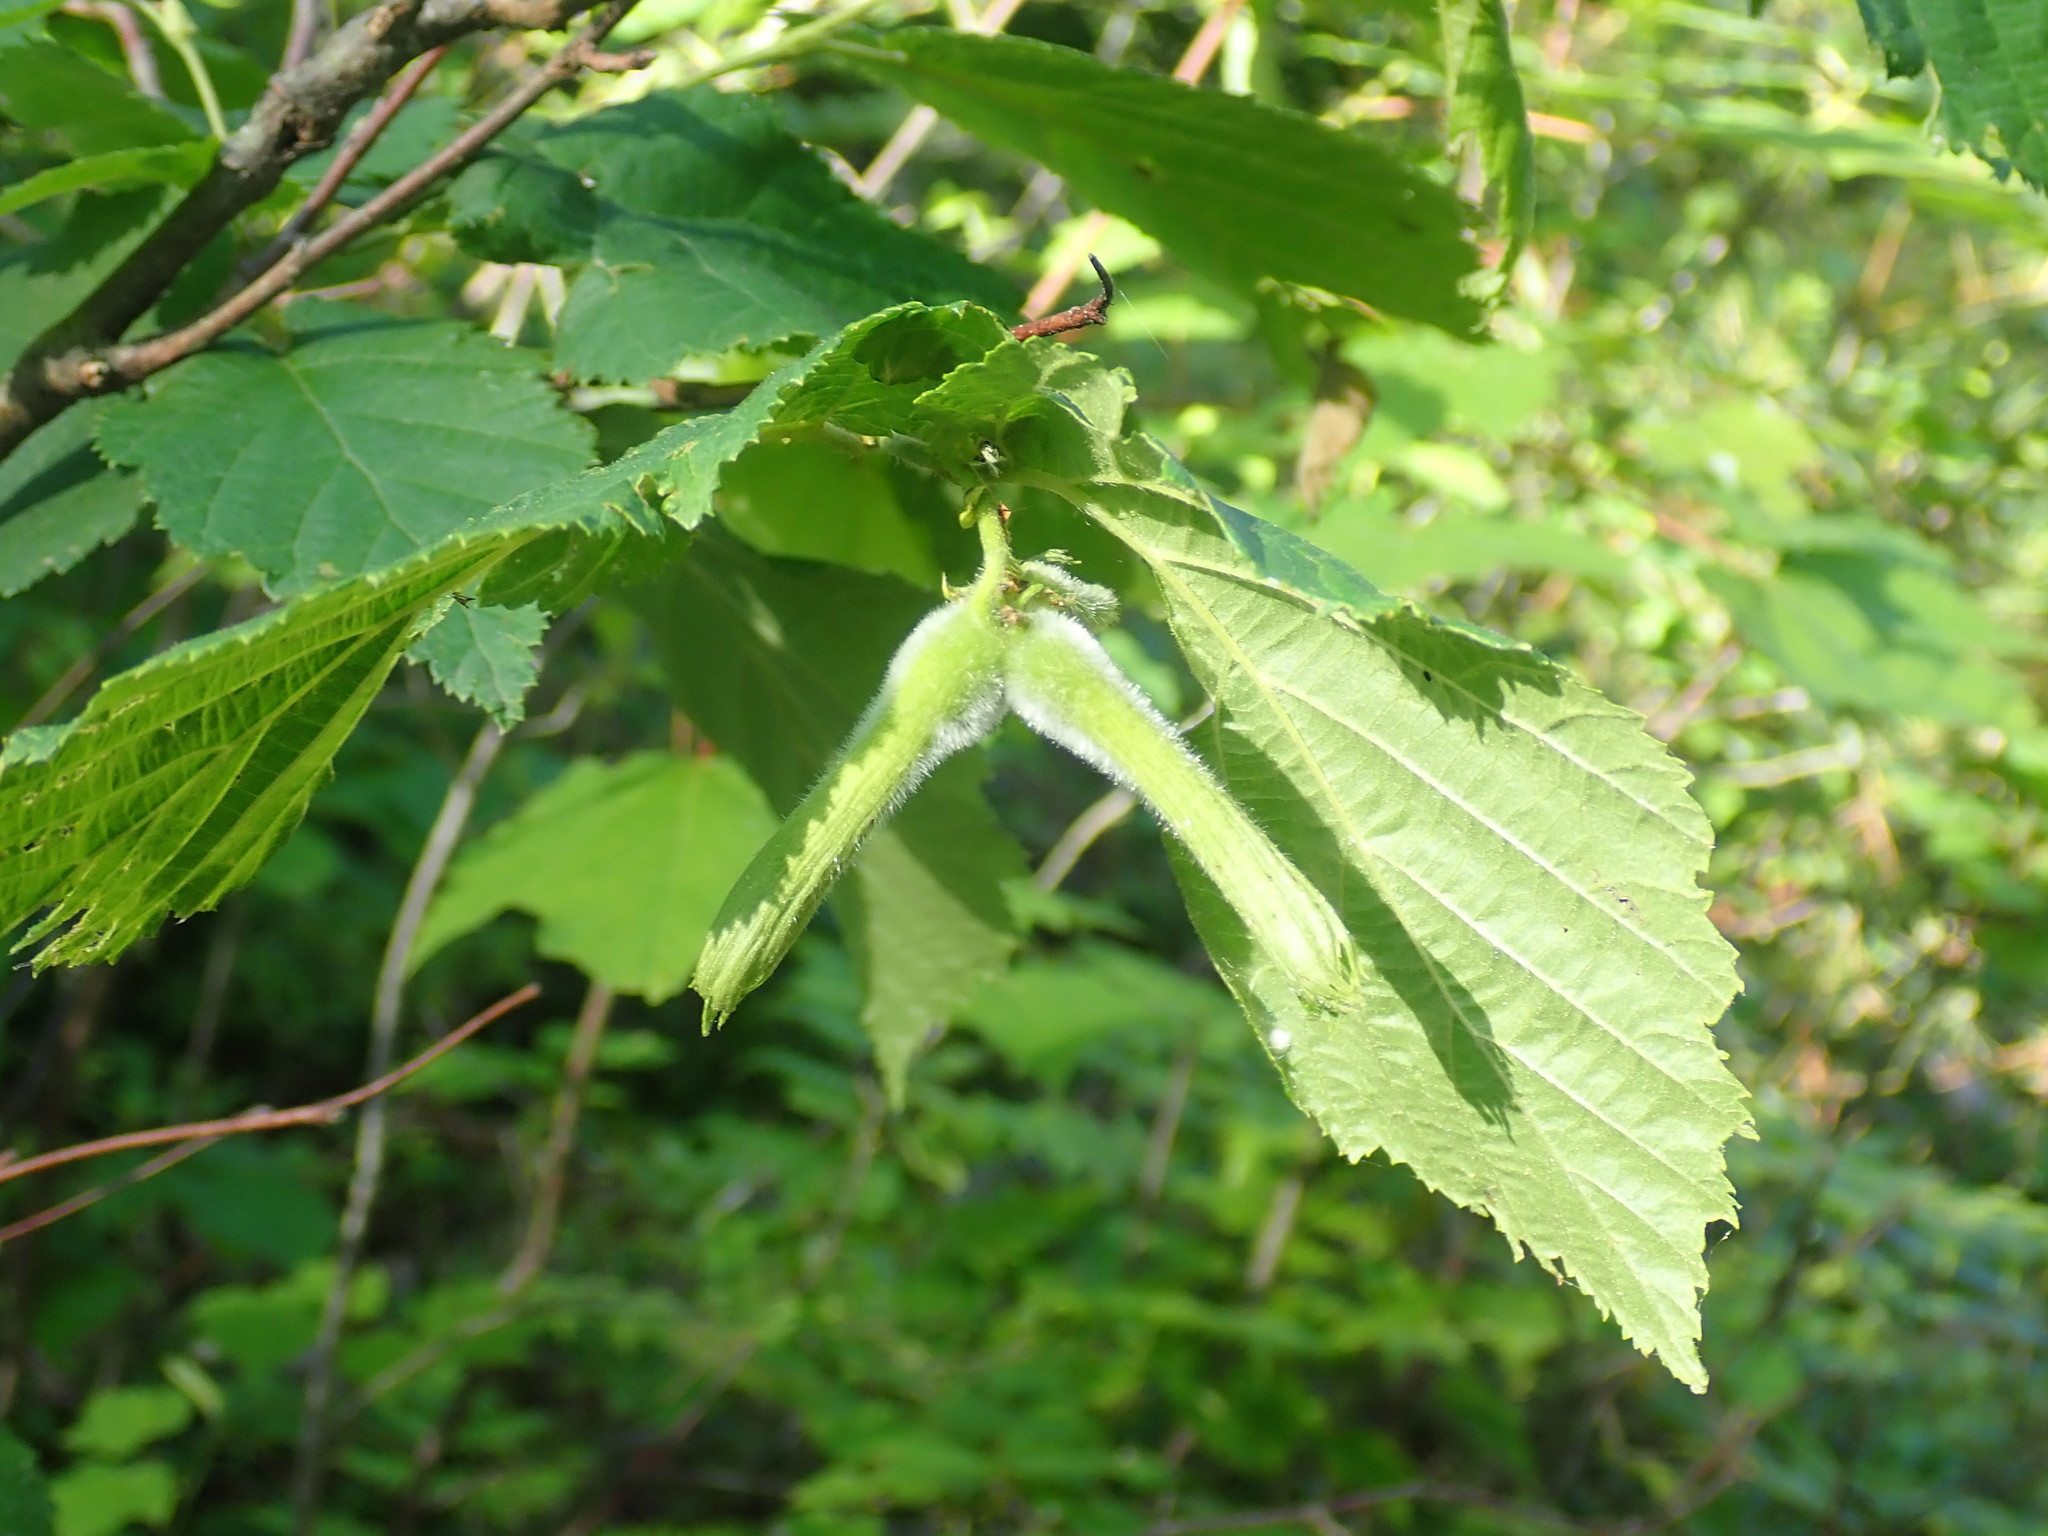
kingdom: Plantae
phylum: Tracheophyta
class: Magnoliopsida
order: Fagales
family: Betulaceae
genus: Corylus
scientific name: Corylus cornuta
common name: Beaked hazel
